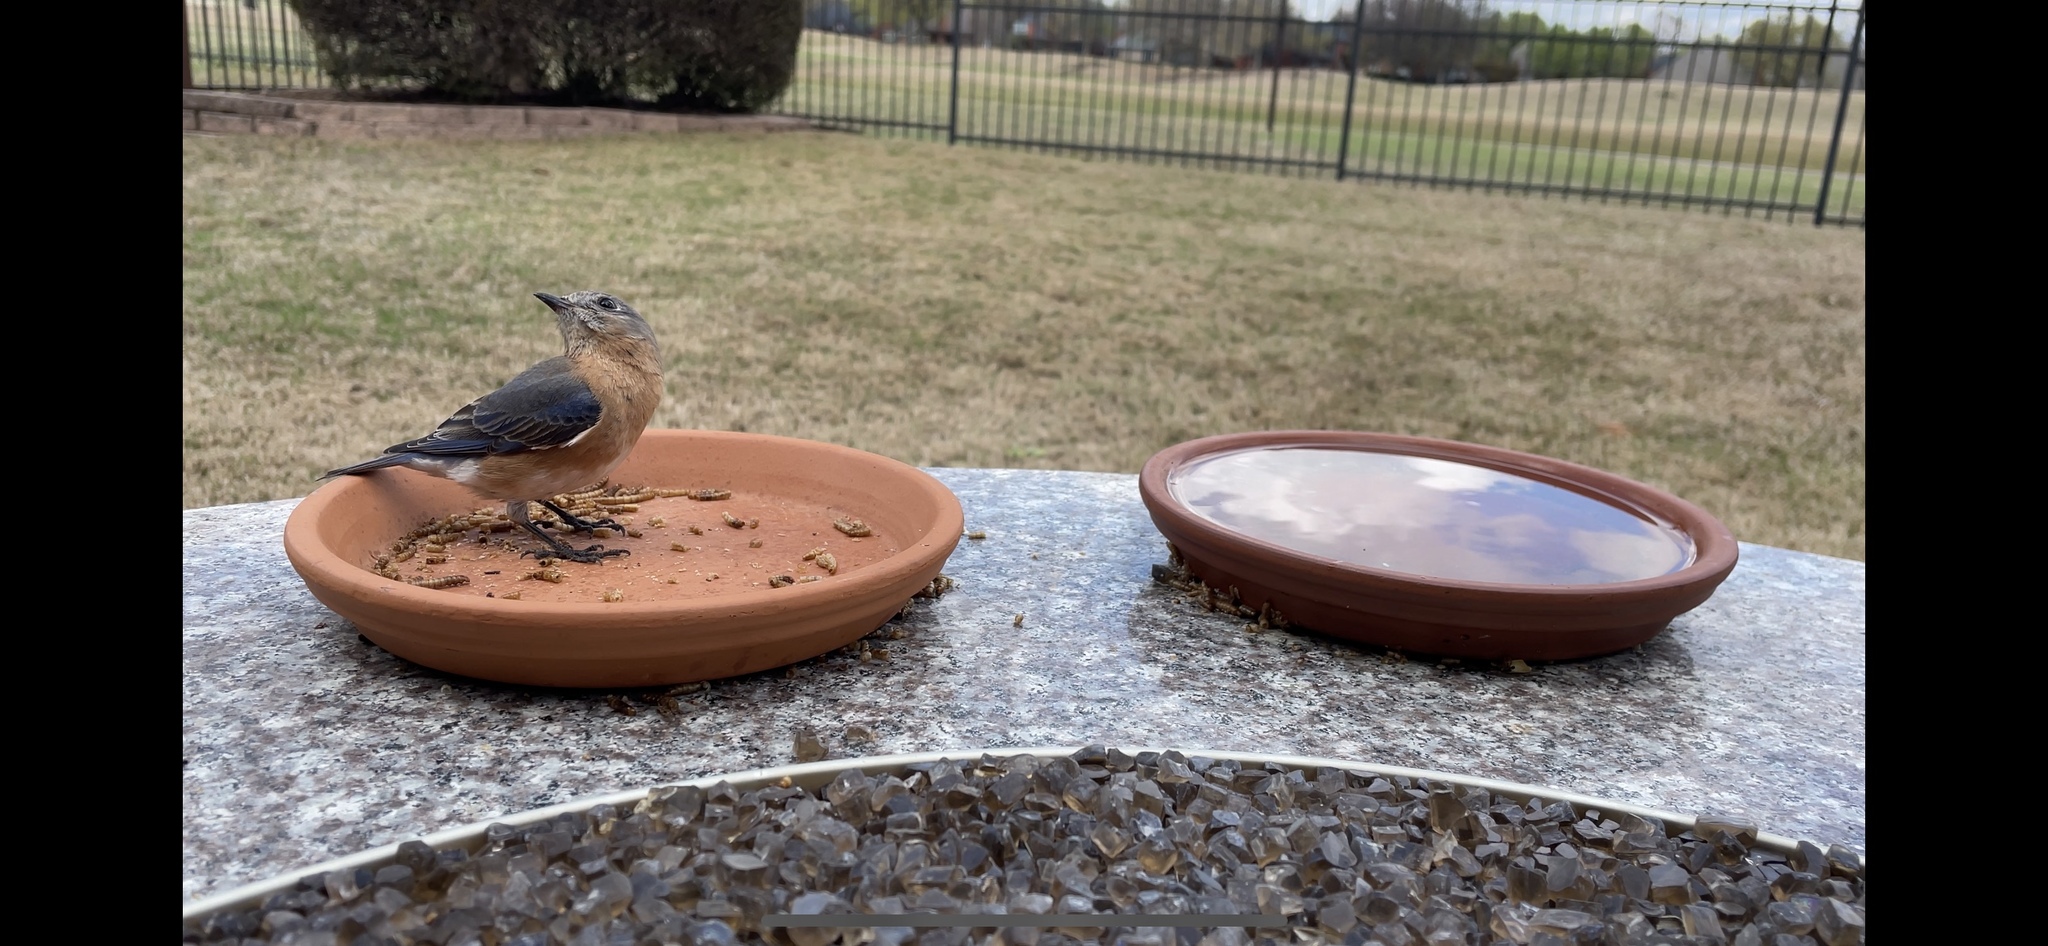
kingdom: Animalia
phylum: Chordata
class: Aves
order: Passeriformes
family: Turdidae
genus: Sialia
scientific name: Sialia sialis
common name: Eastern bluebird
